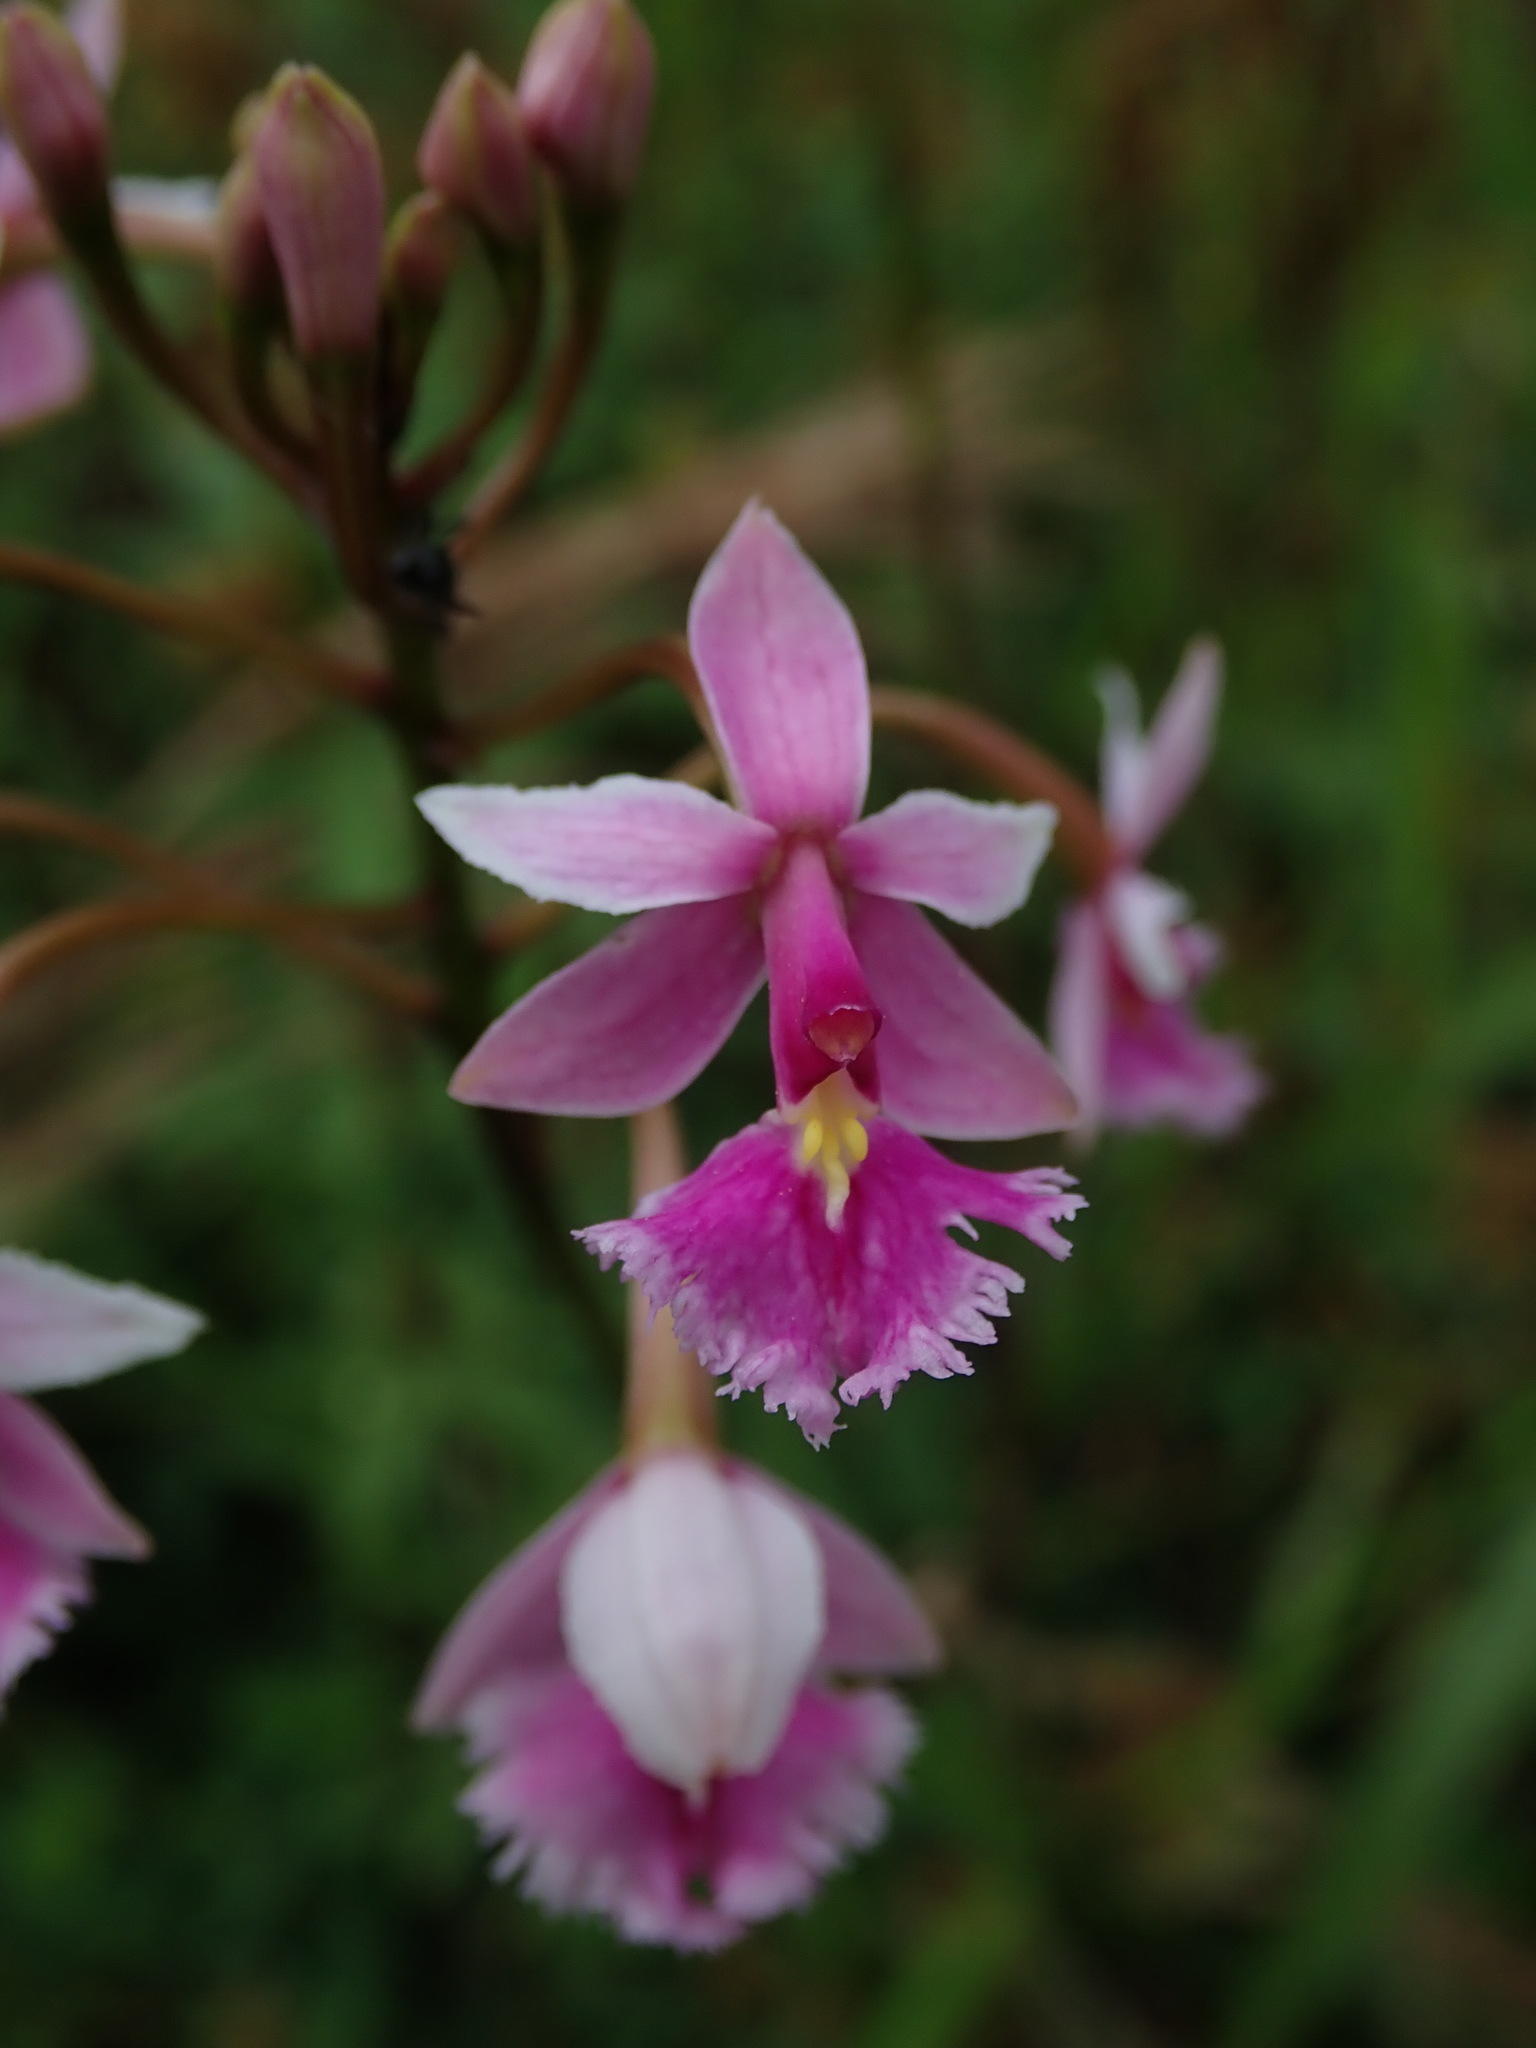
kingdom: Plantae
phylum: Tracheophyta
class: Liliopsida
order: Asparagales
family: Orchidaceae
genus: Epidendrum
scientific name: Epidendrum calanthum
